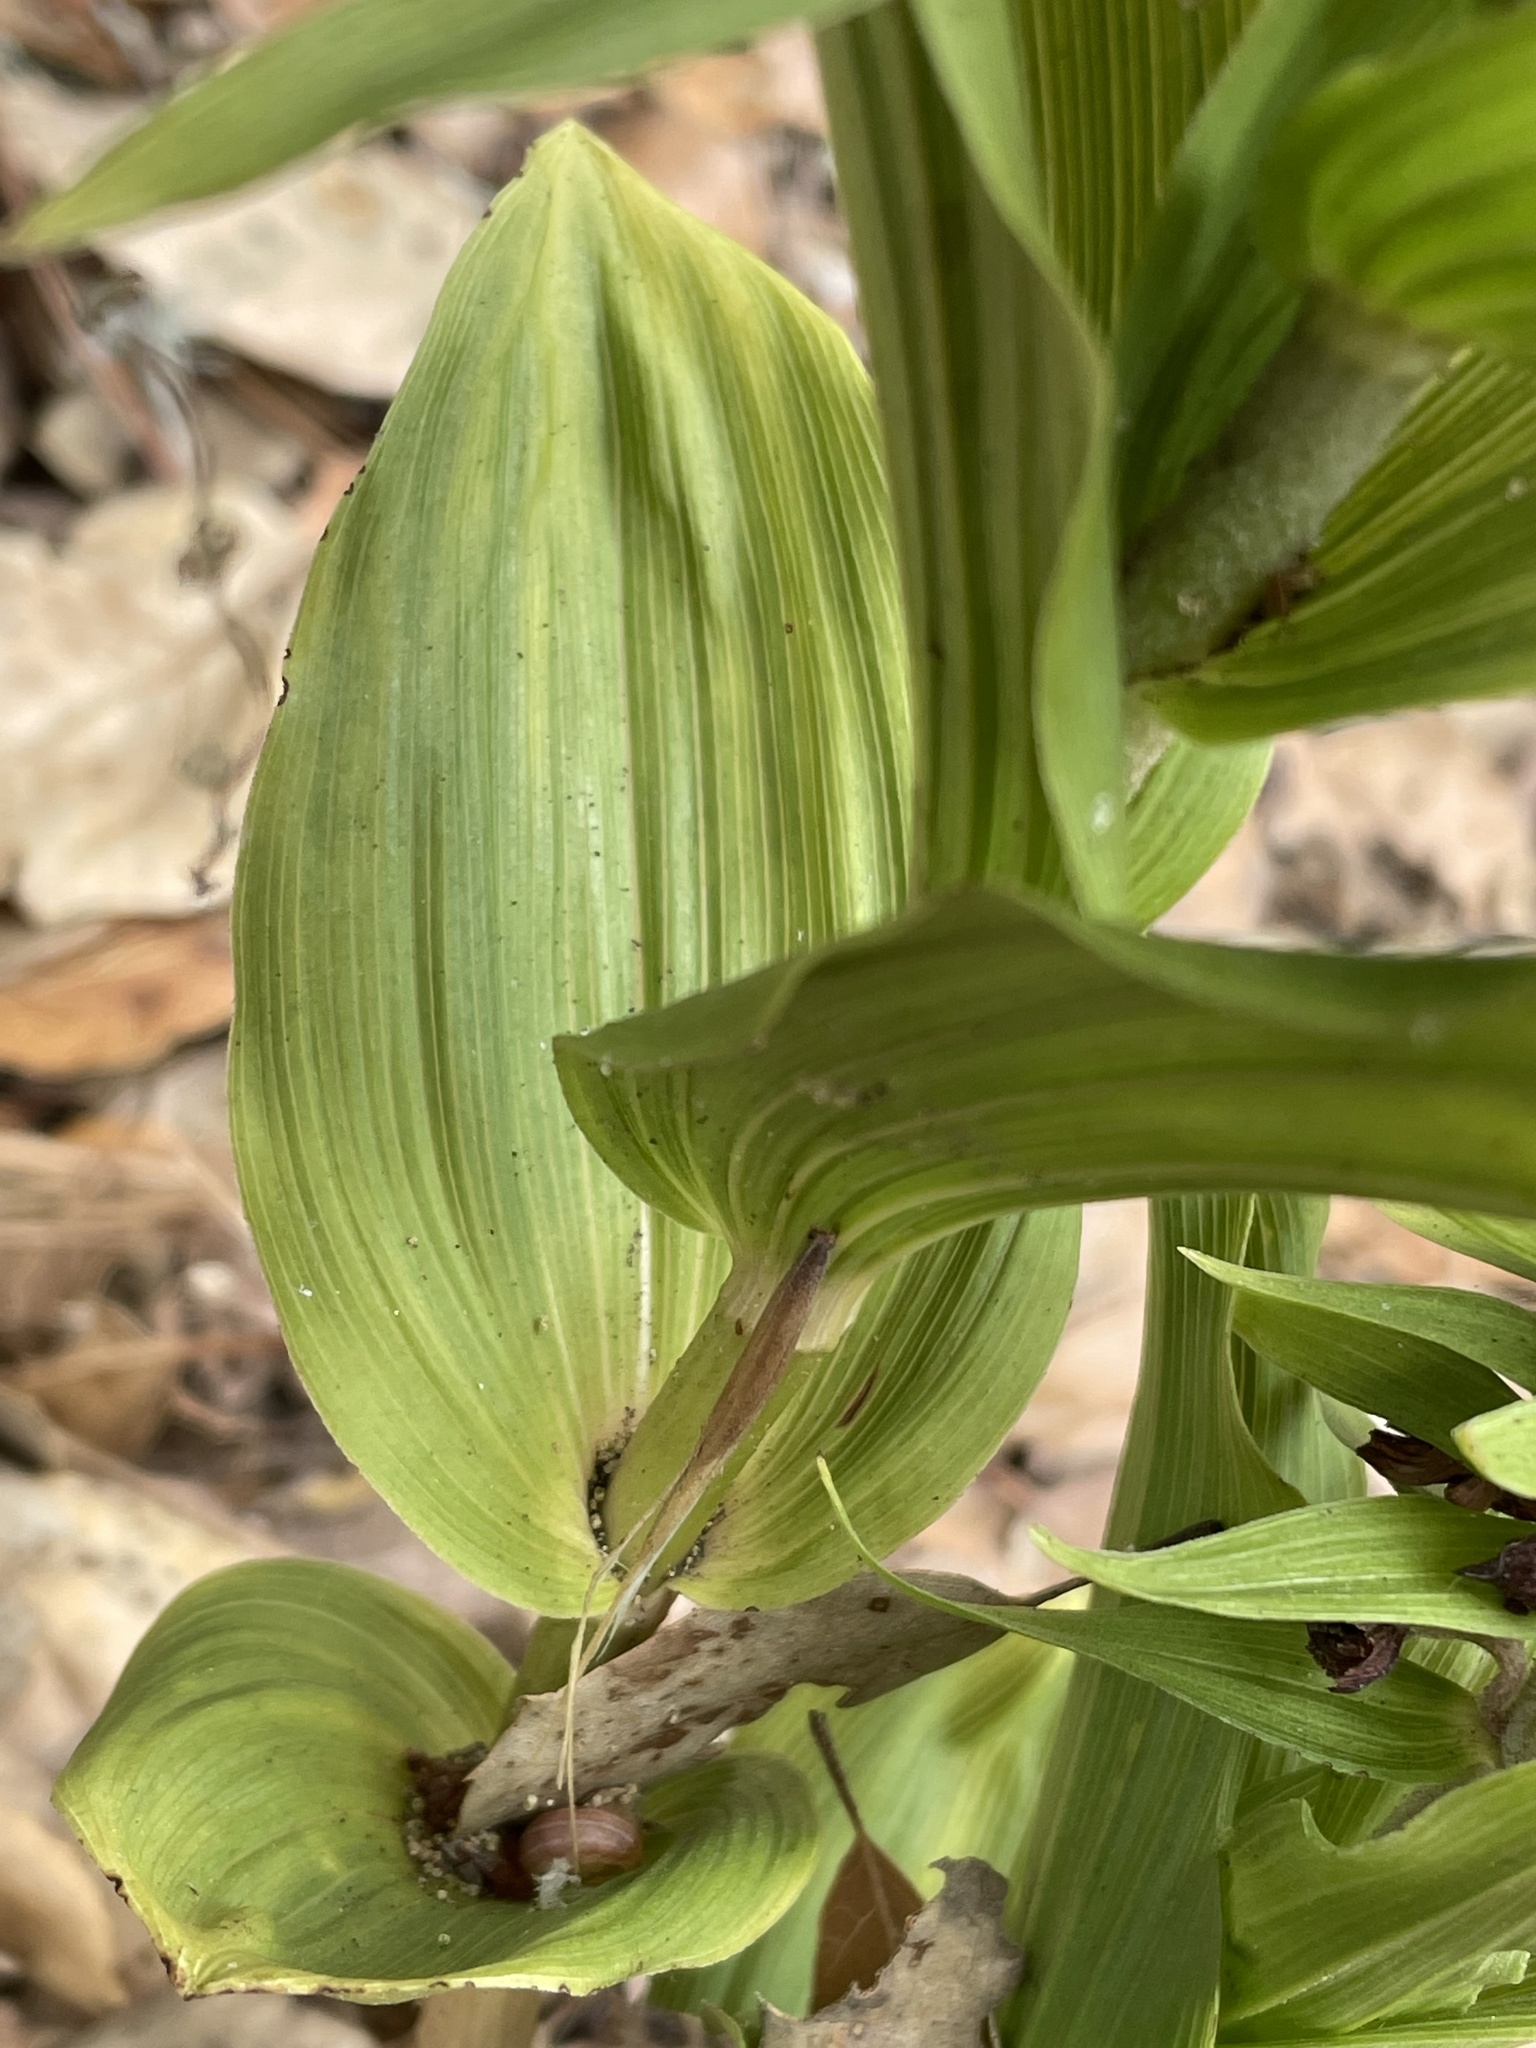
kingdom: Plantae
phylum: Tracheophyta
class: Liliopsida
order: Asparagales
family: Orchidaceae
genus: Epipactis
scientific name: Epipactis helleborine
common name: Broad-leaved helleborine
